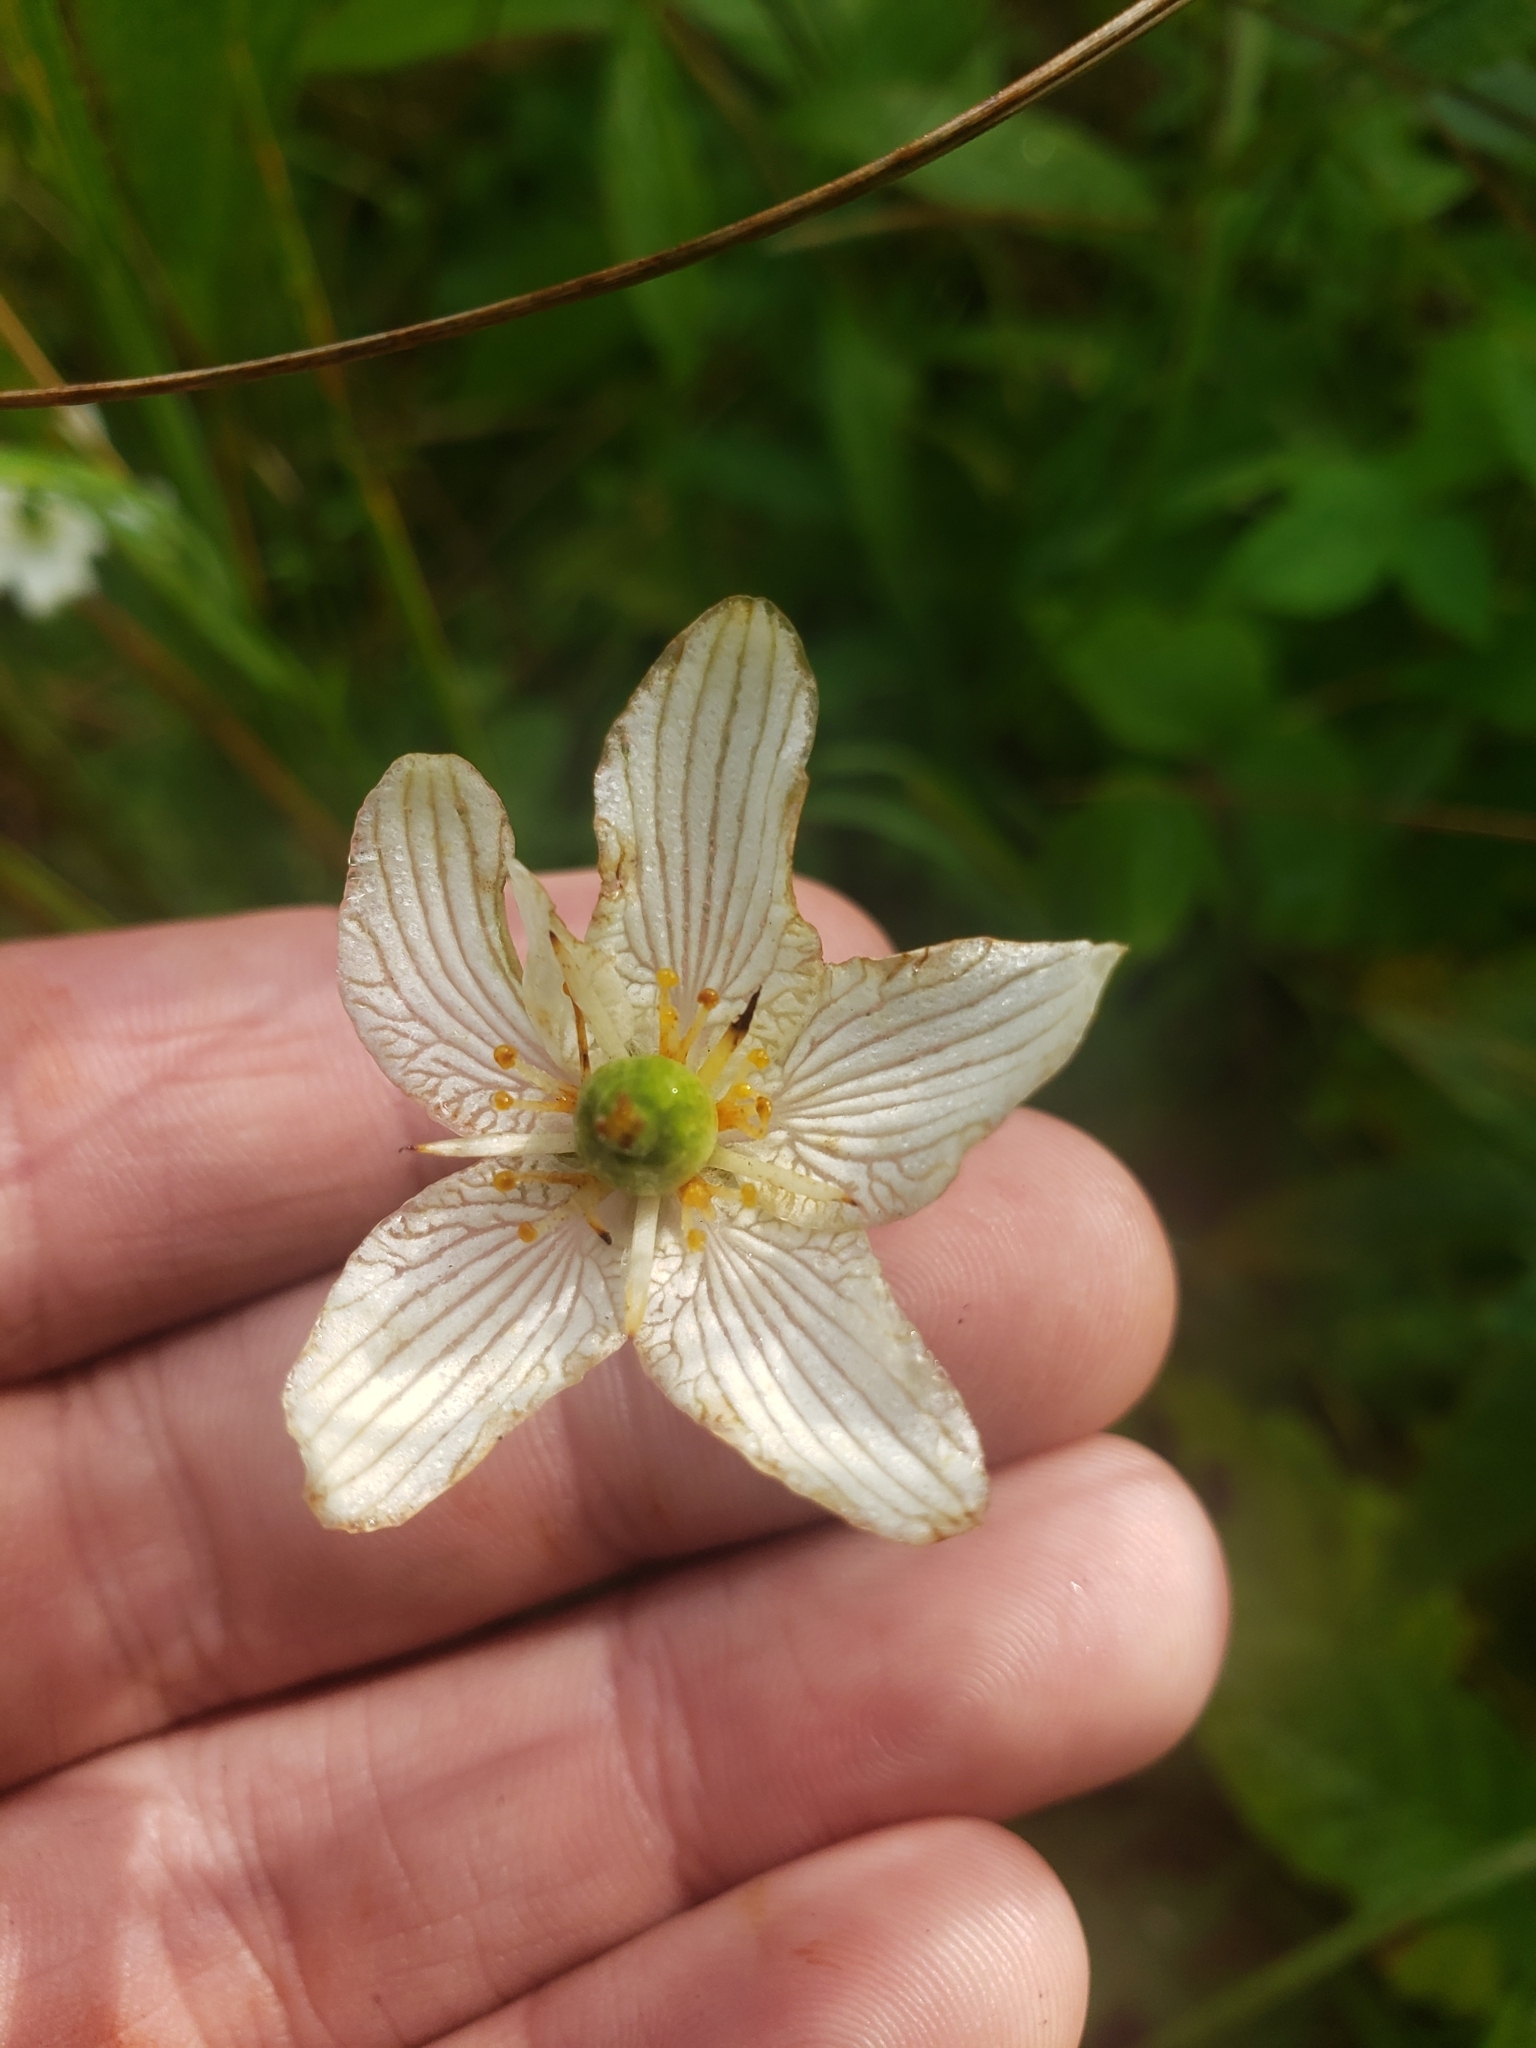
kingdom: Plantae
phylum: Tracheophyta
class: Magnoliopsida
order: Celastrales
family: Parnassiaceae
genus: Parnassia
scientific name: Parnassia glauca
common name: American grass-of-parnassus
